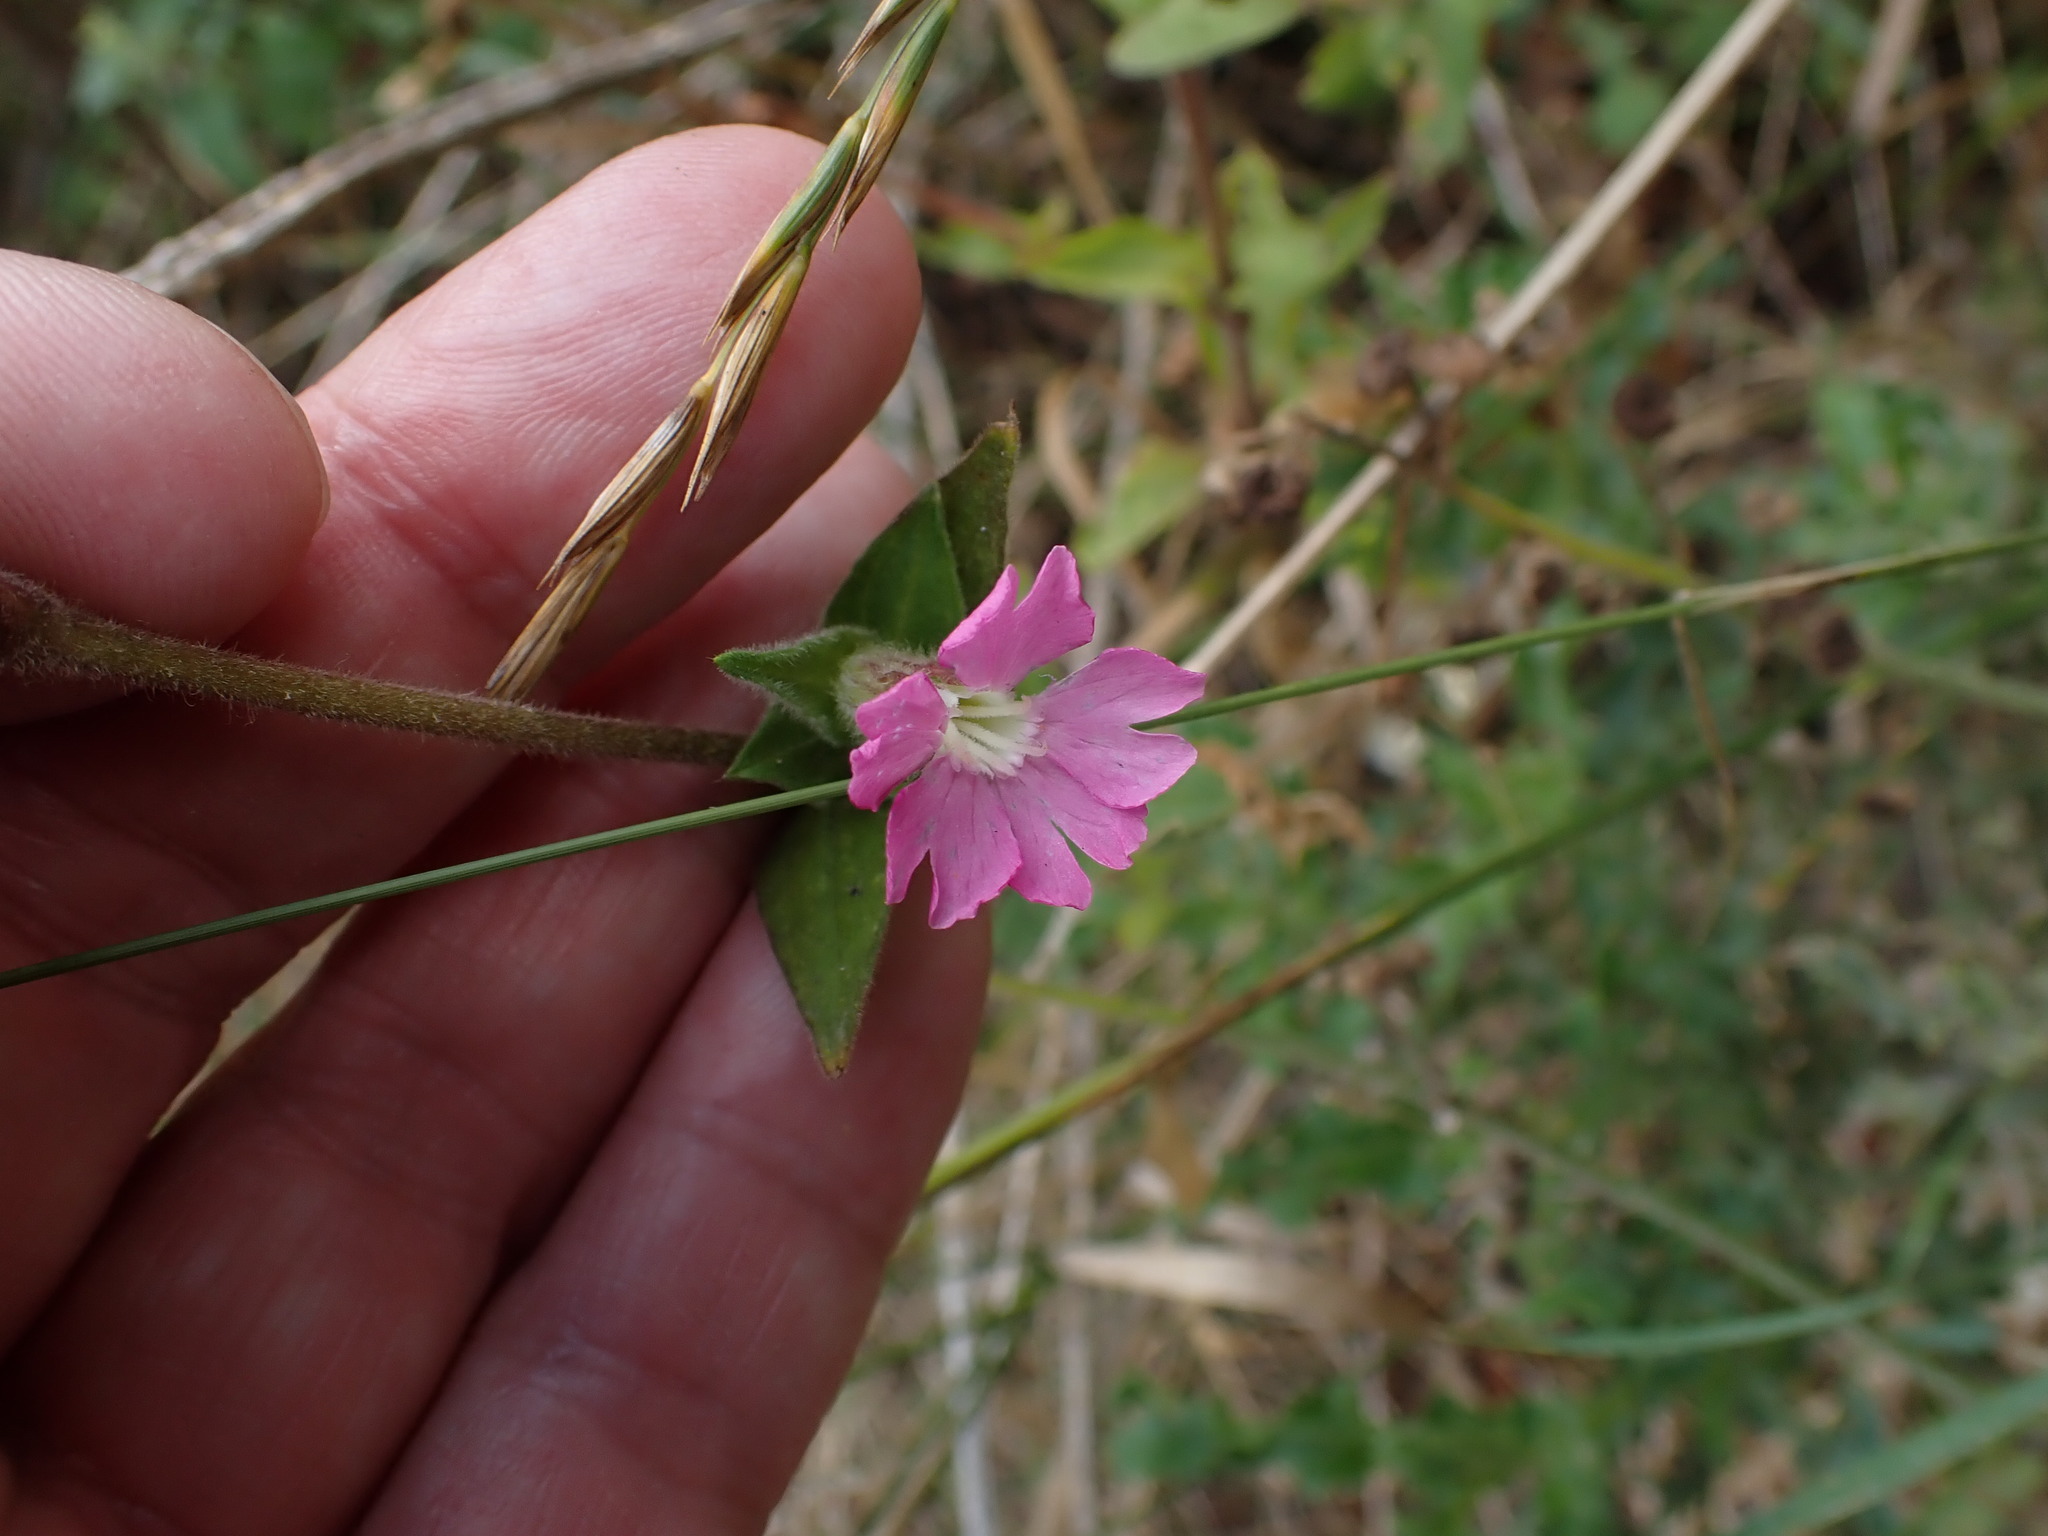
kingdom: Plantae
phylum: Tracheophyta
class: Magnoliopsida
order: Caryophyllales
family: Caryophyllaceae
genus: Silene
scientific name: Silene dioica
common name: Red campion
